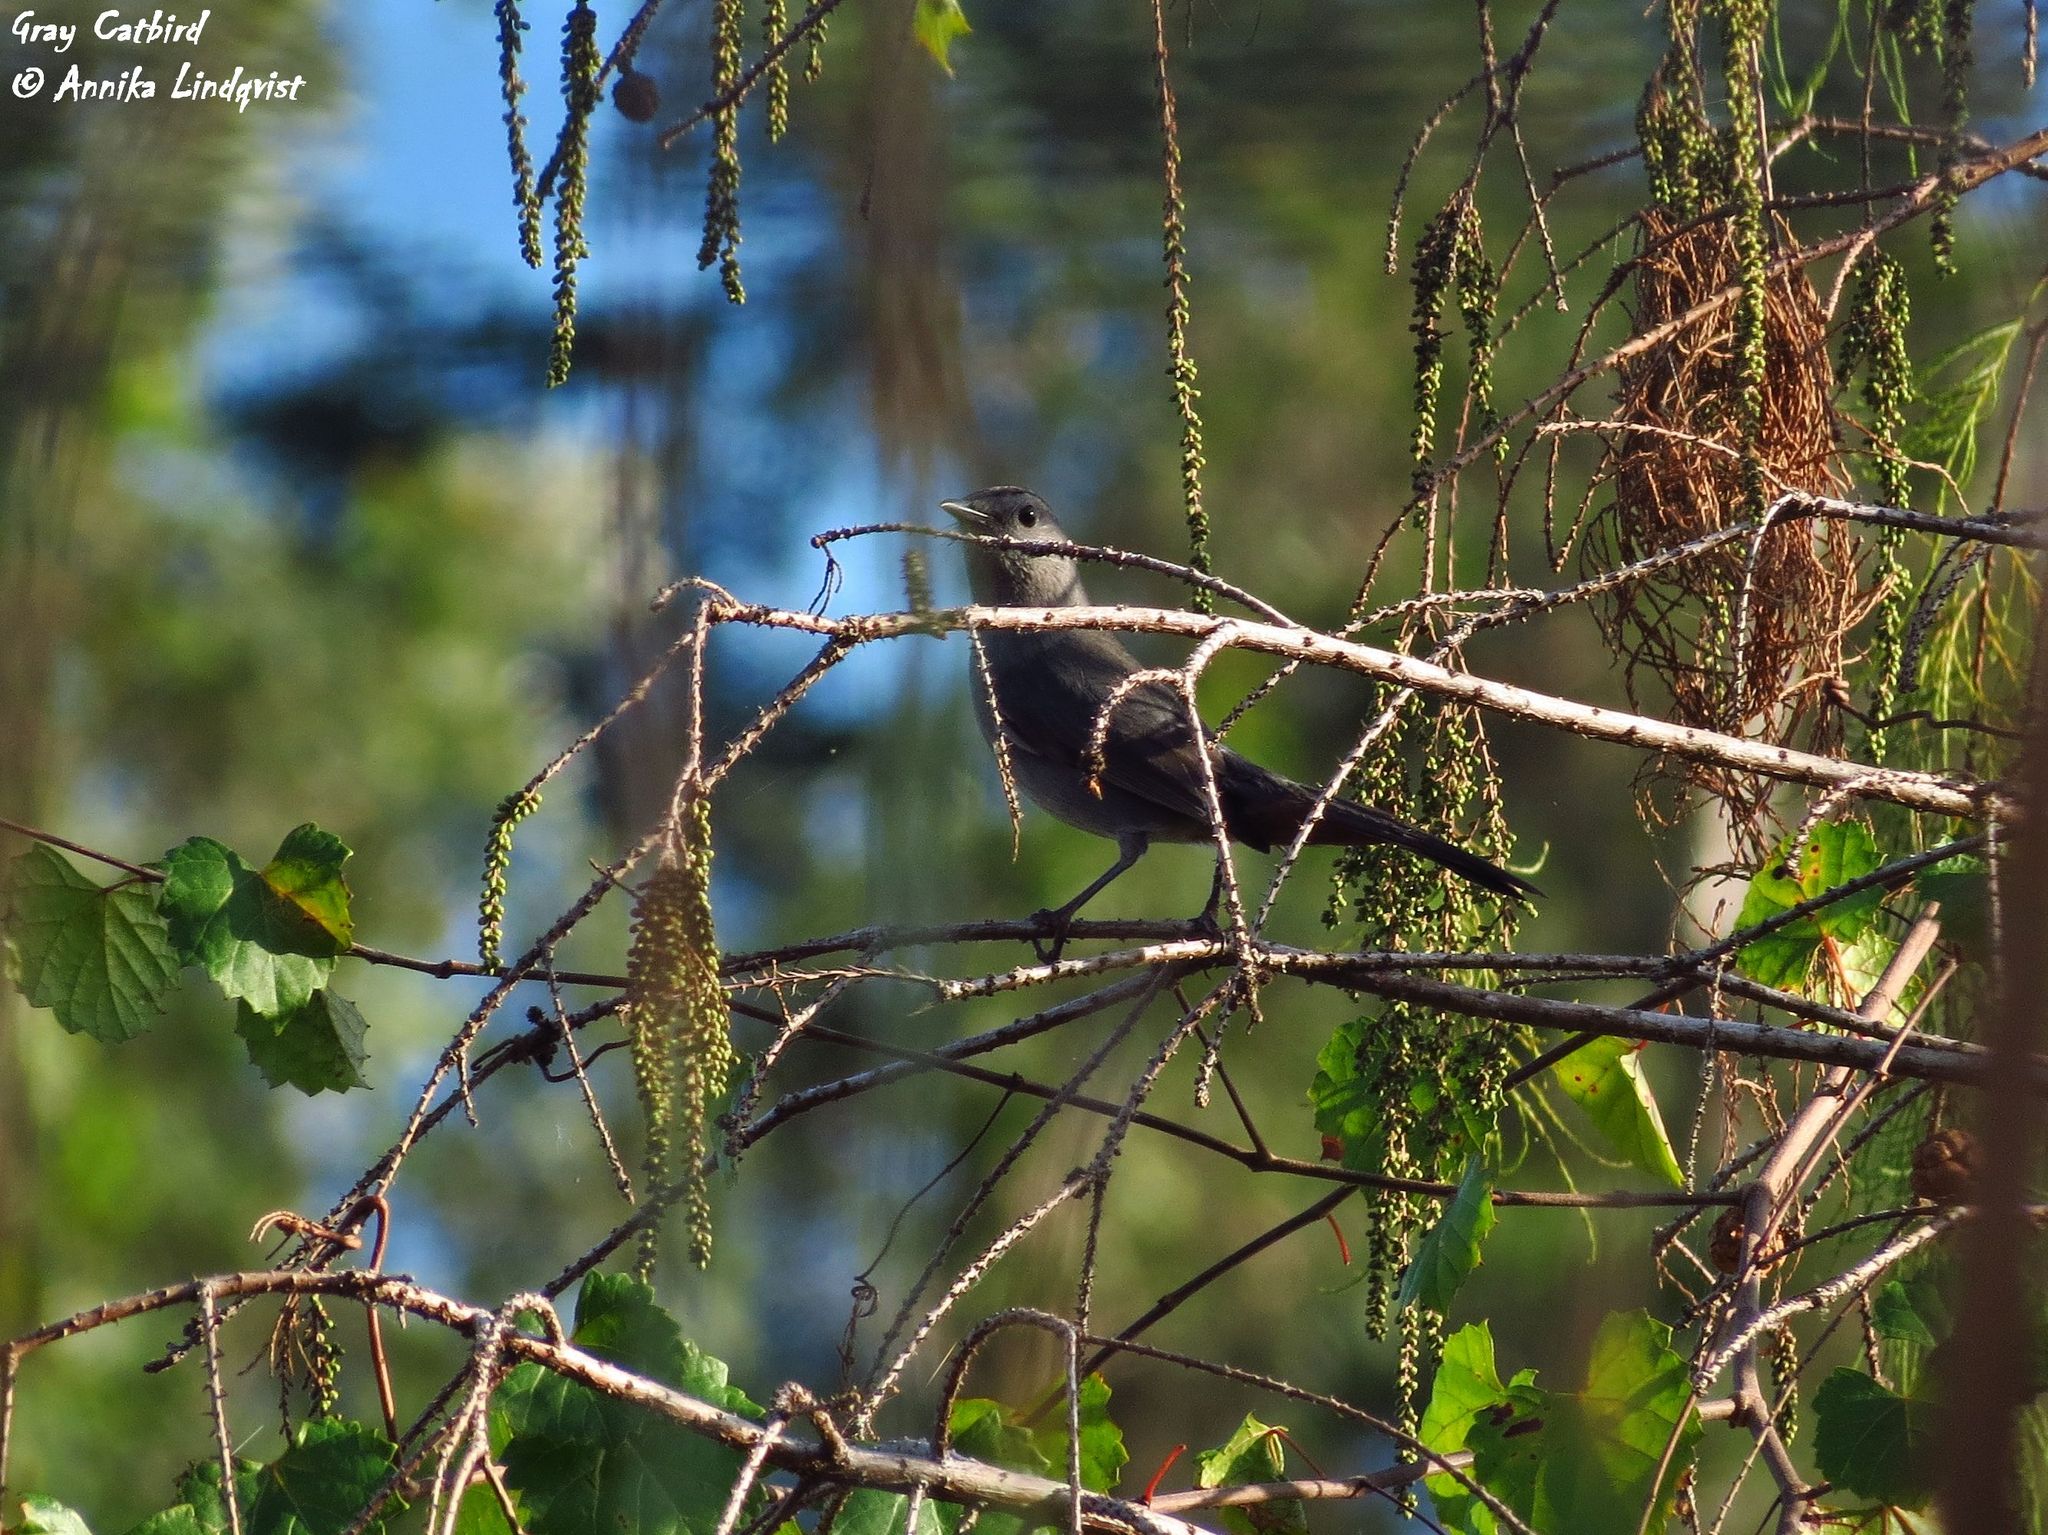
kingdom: Animalia
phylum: Chordata
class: Aves
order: Passeriformes
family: Mimidae
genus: Dumetella
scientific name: Dumetella carolinensis
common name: Gray catbird
